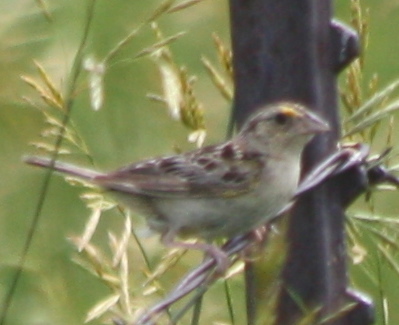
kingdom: Animalia
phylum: Chordata
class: Aves
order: Passeriformes
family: Passerellidae
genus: Ammodramus
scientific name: Ammodramus savannarum
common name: Grasshopper sparrow
